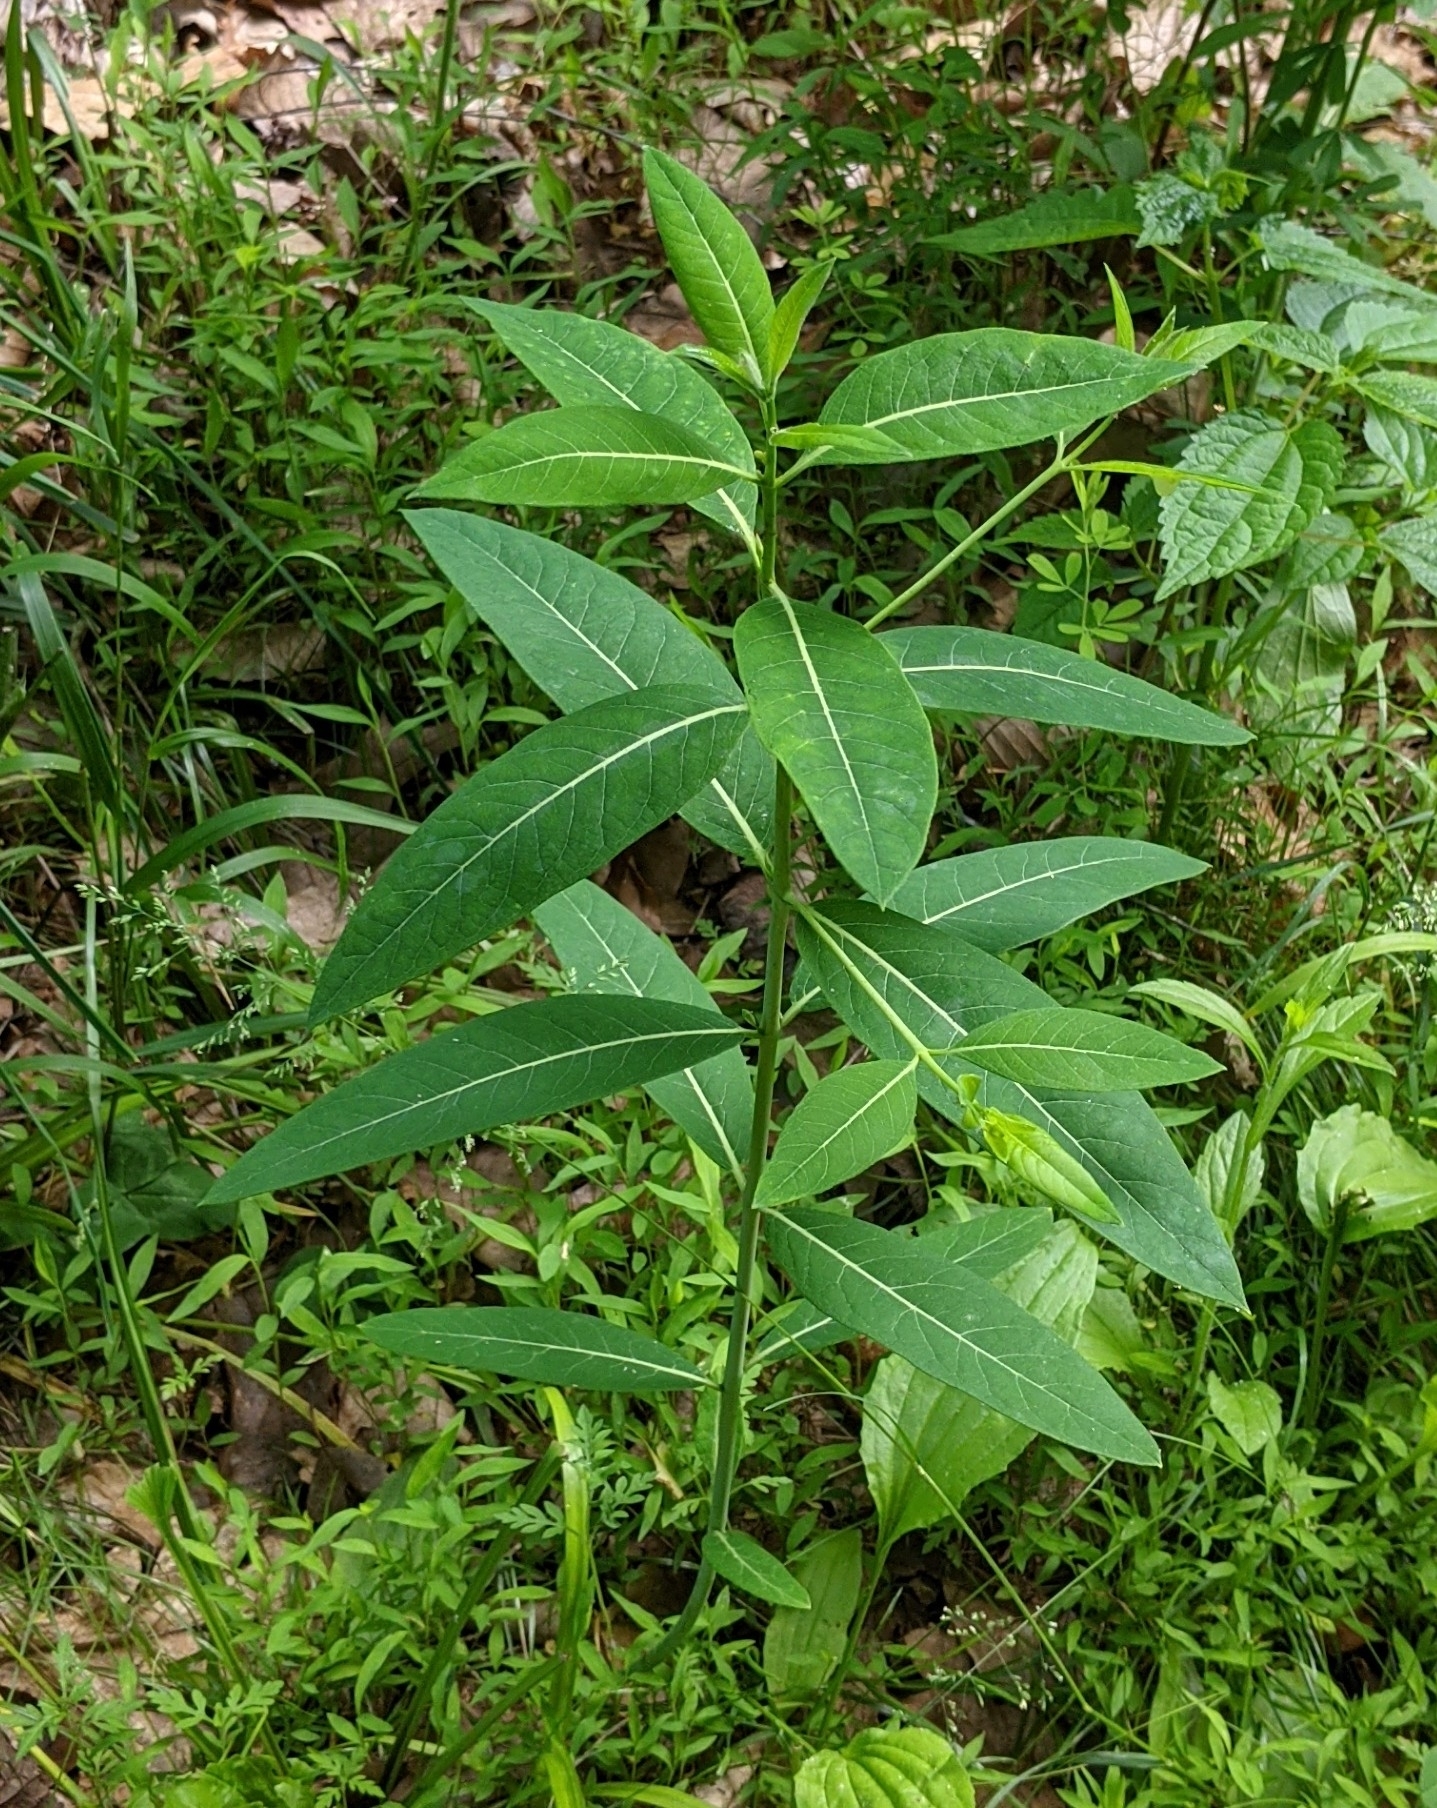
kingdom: Plantae
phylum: Tracheophyta
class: Magnoliopsida
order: Gentianales
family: Apocynaceae
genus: Apocynum
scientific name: Apocynum cannabinum
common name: Hemp dogbane
